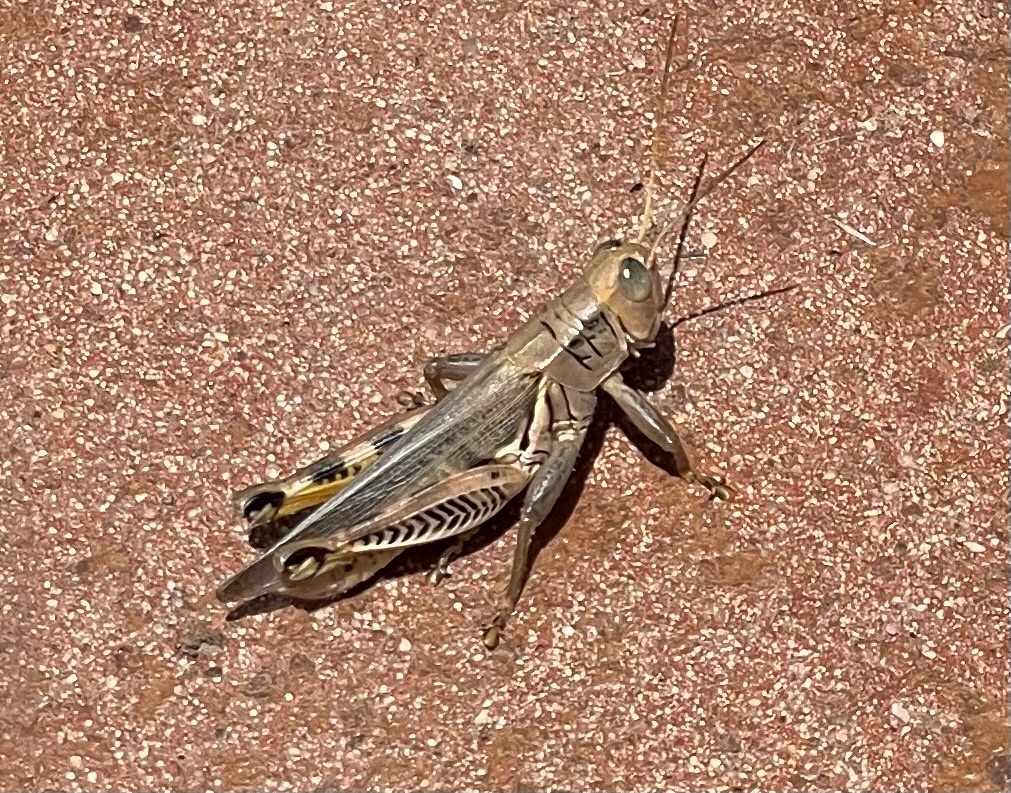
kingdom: Animalia
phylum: Arthropoda
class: Insecta
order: Orthoptera
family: Acrididae
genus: Melanoplus
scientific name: Melanoplus differentialis
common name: Differential grasshopper
